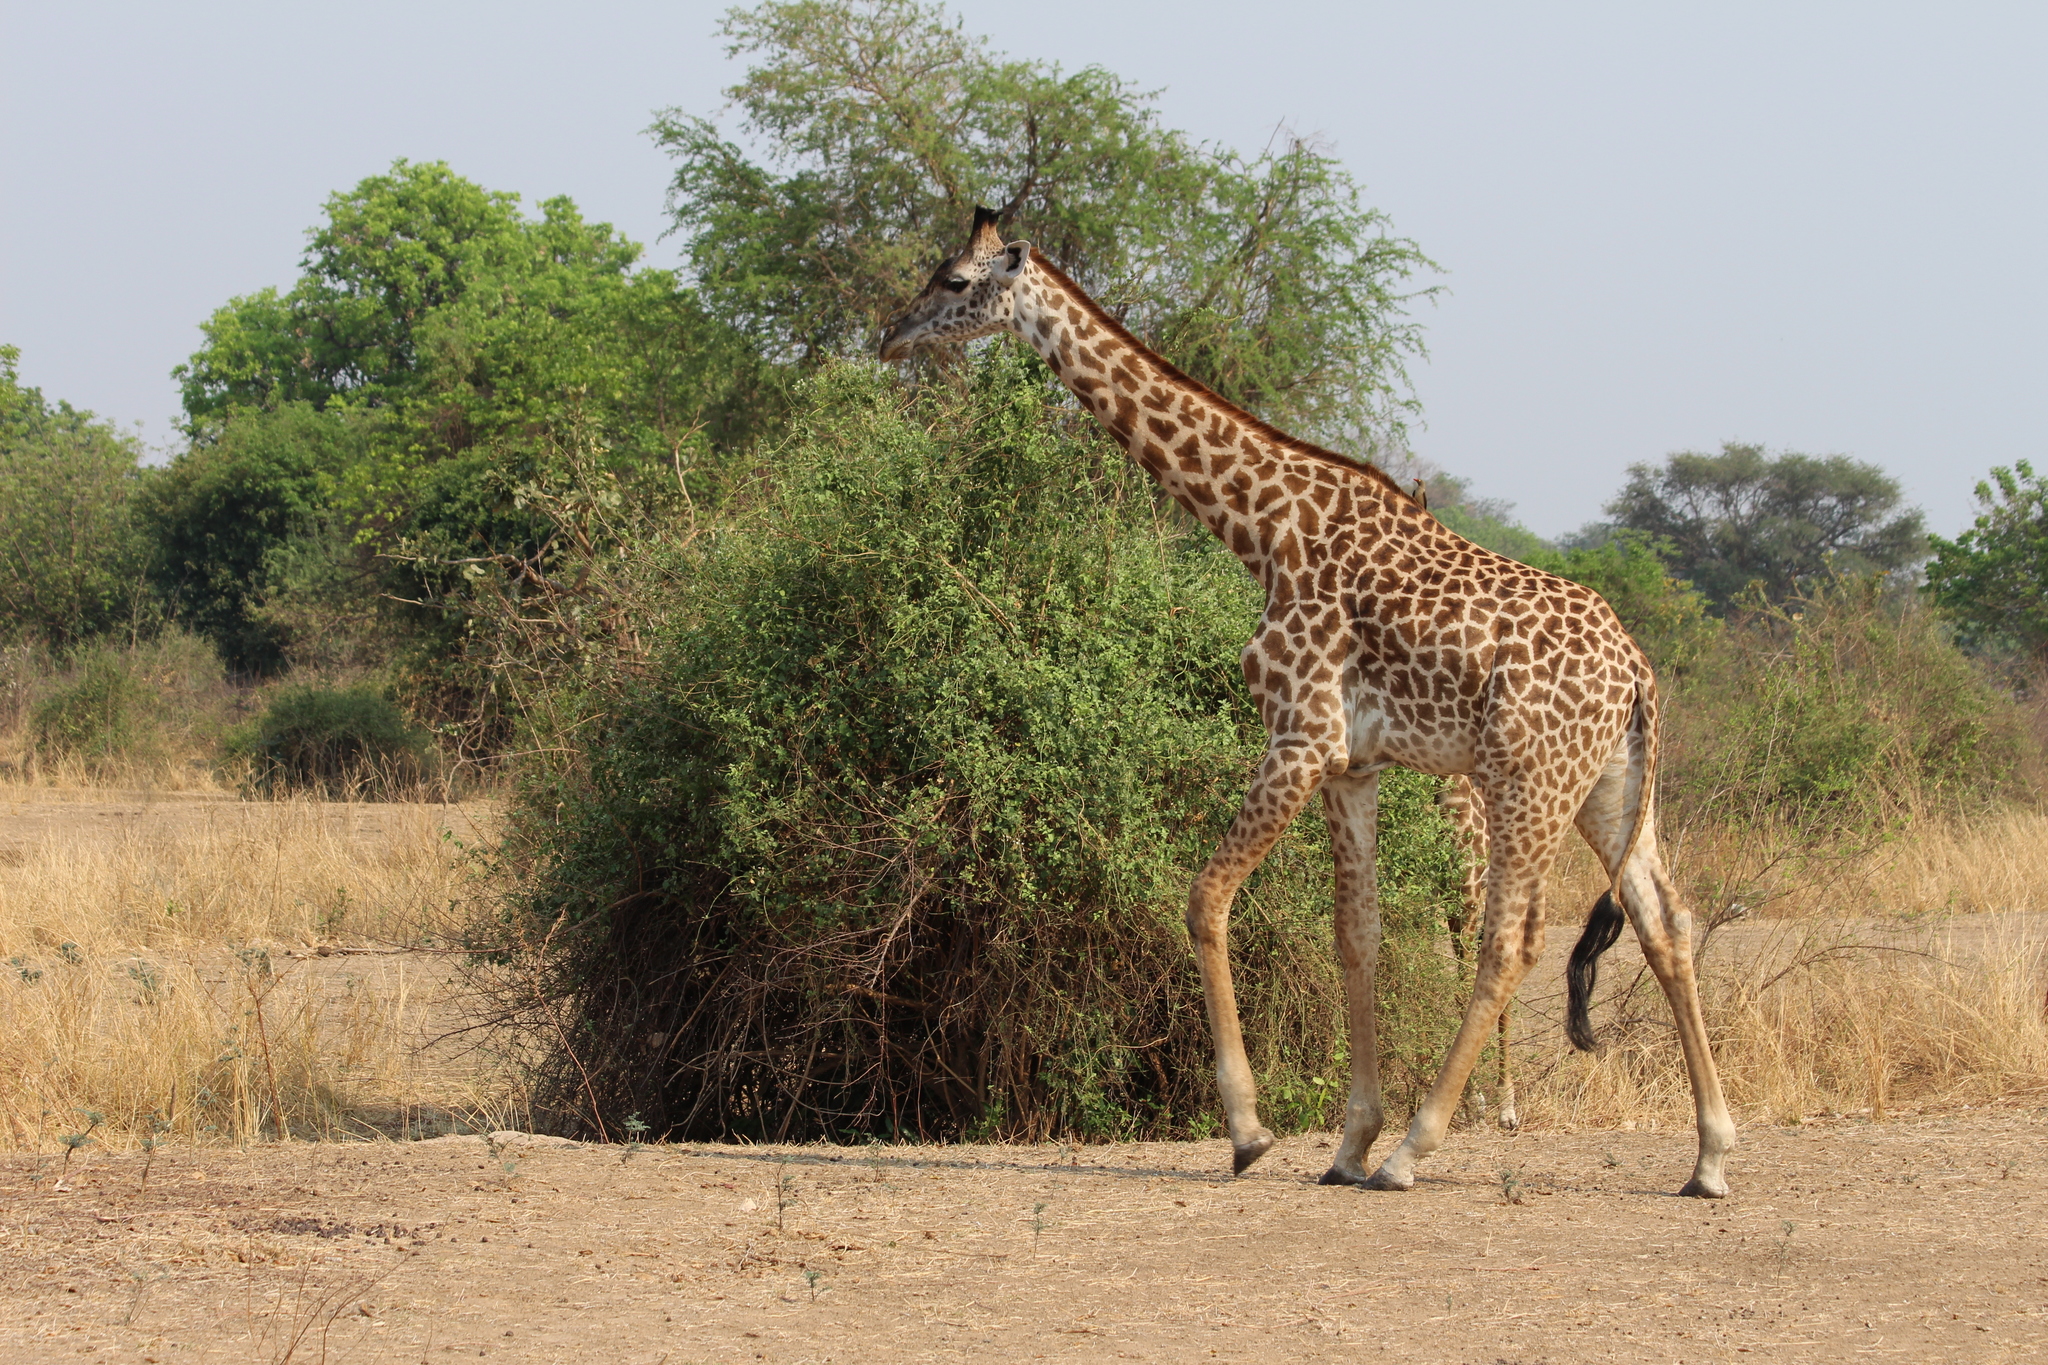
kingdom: Animalia
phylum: Chordata
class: Mammalia
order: Artiodactyla
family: Giraffidae
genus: Giraffa
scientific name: Giraffa tippelskirchi
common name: Masai giraffe
